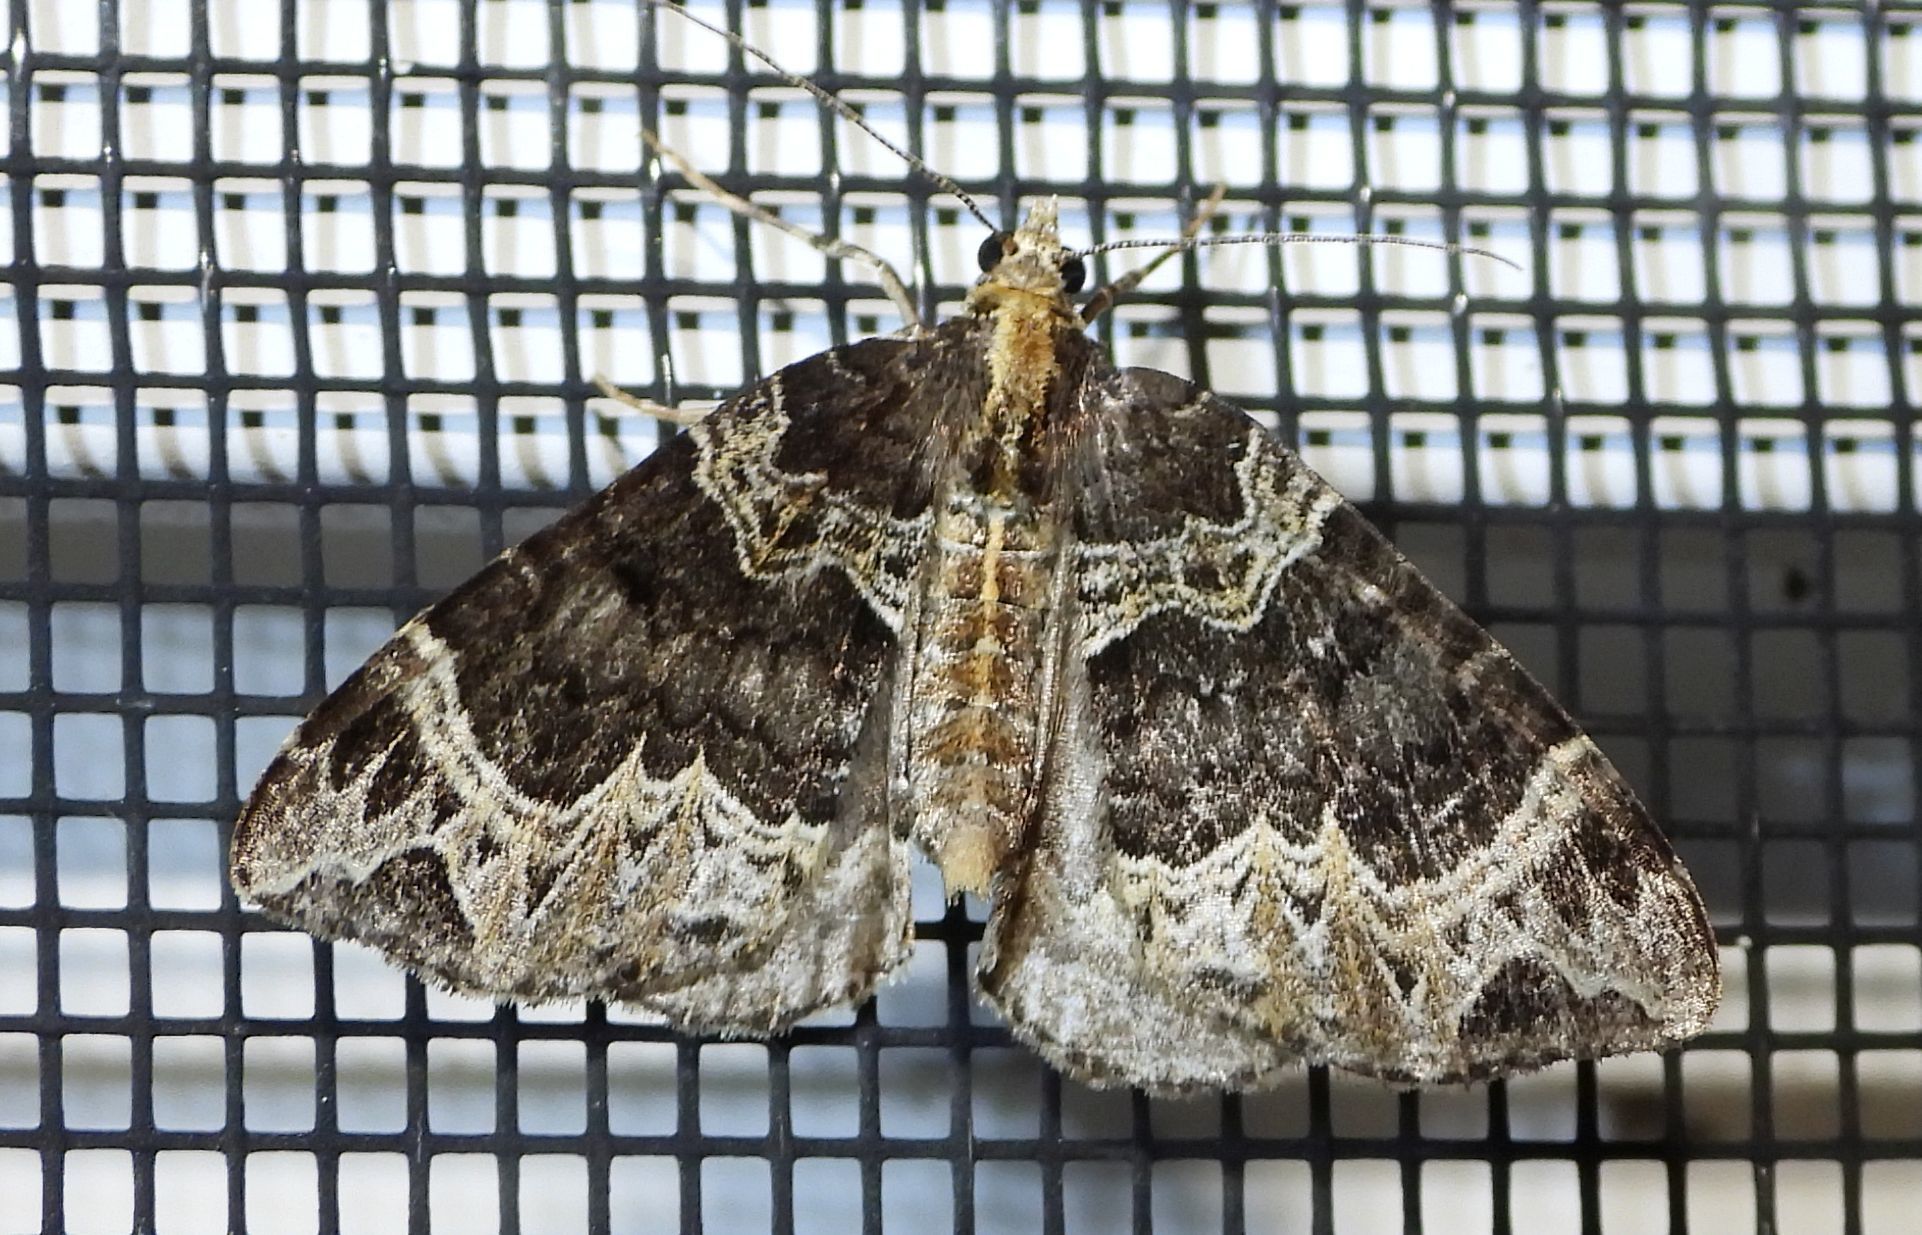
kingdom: Animalia
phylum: Arthropoda
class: Insecta
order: Lepidoptera
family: Geometridae
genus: Ecliptopera
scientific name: Ecliptopera silaceata
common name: Small phoenix
